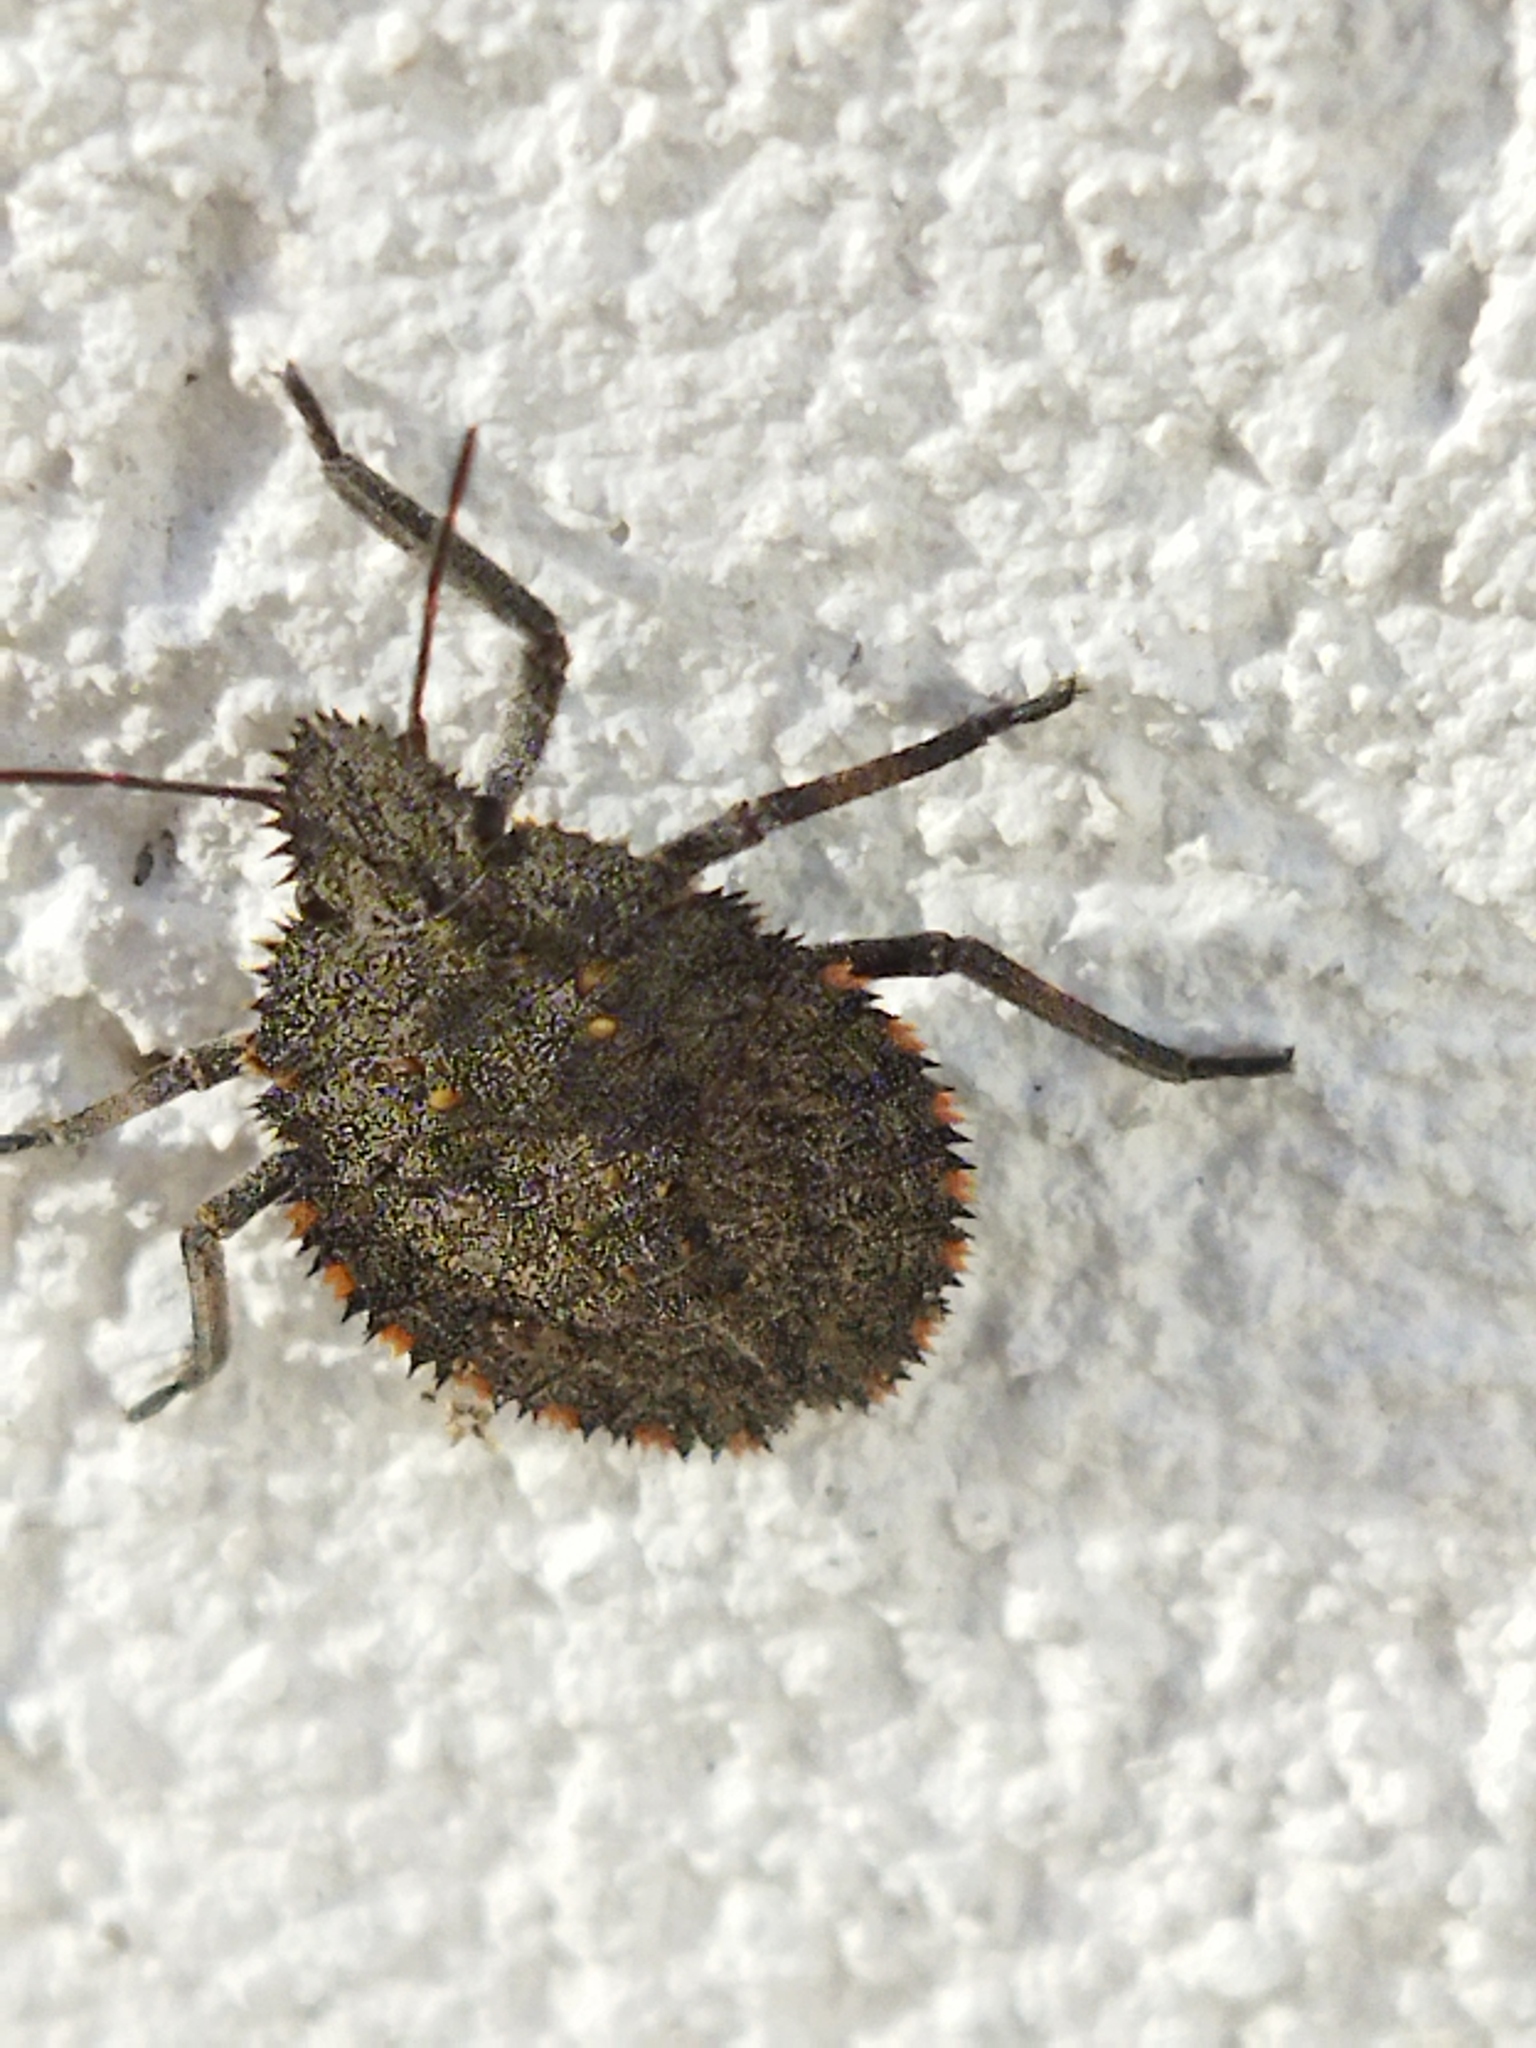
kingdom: Animalia
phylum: Arthropoda
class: Insecta
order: Hemiptera
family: Pentatomidae
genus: Mustha
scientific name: Mustha spinosula
